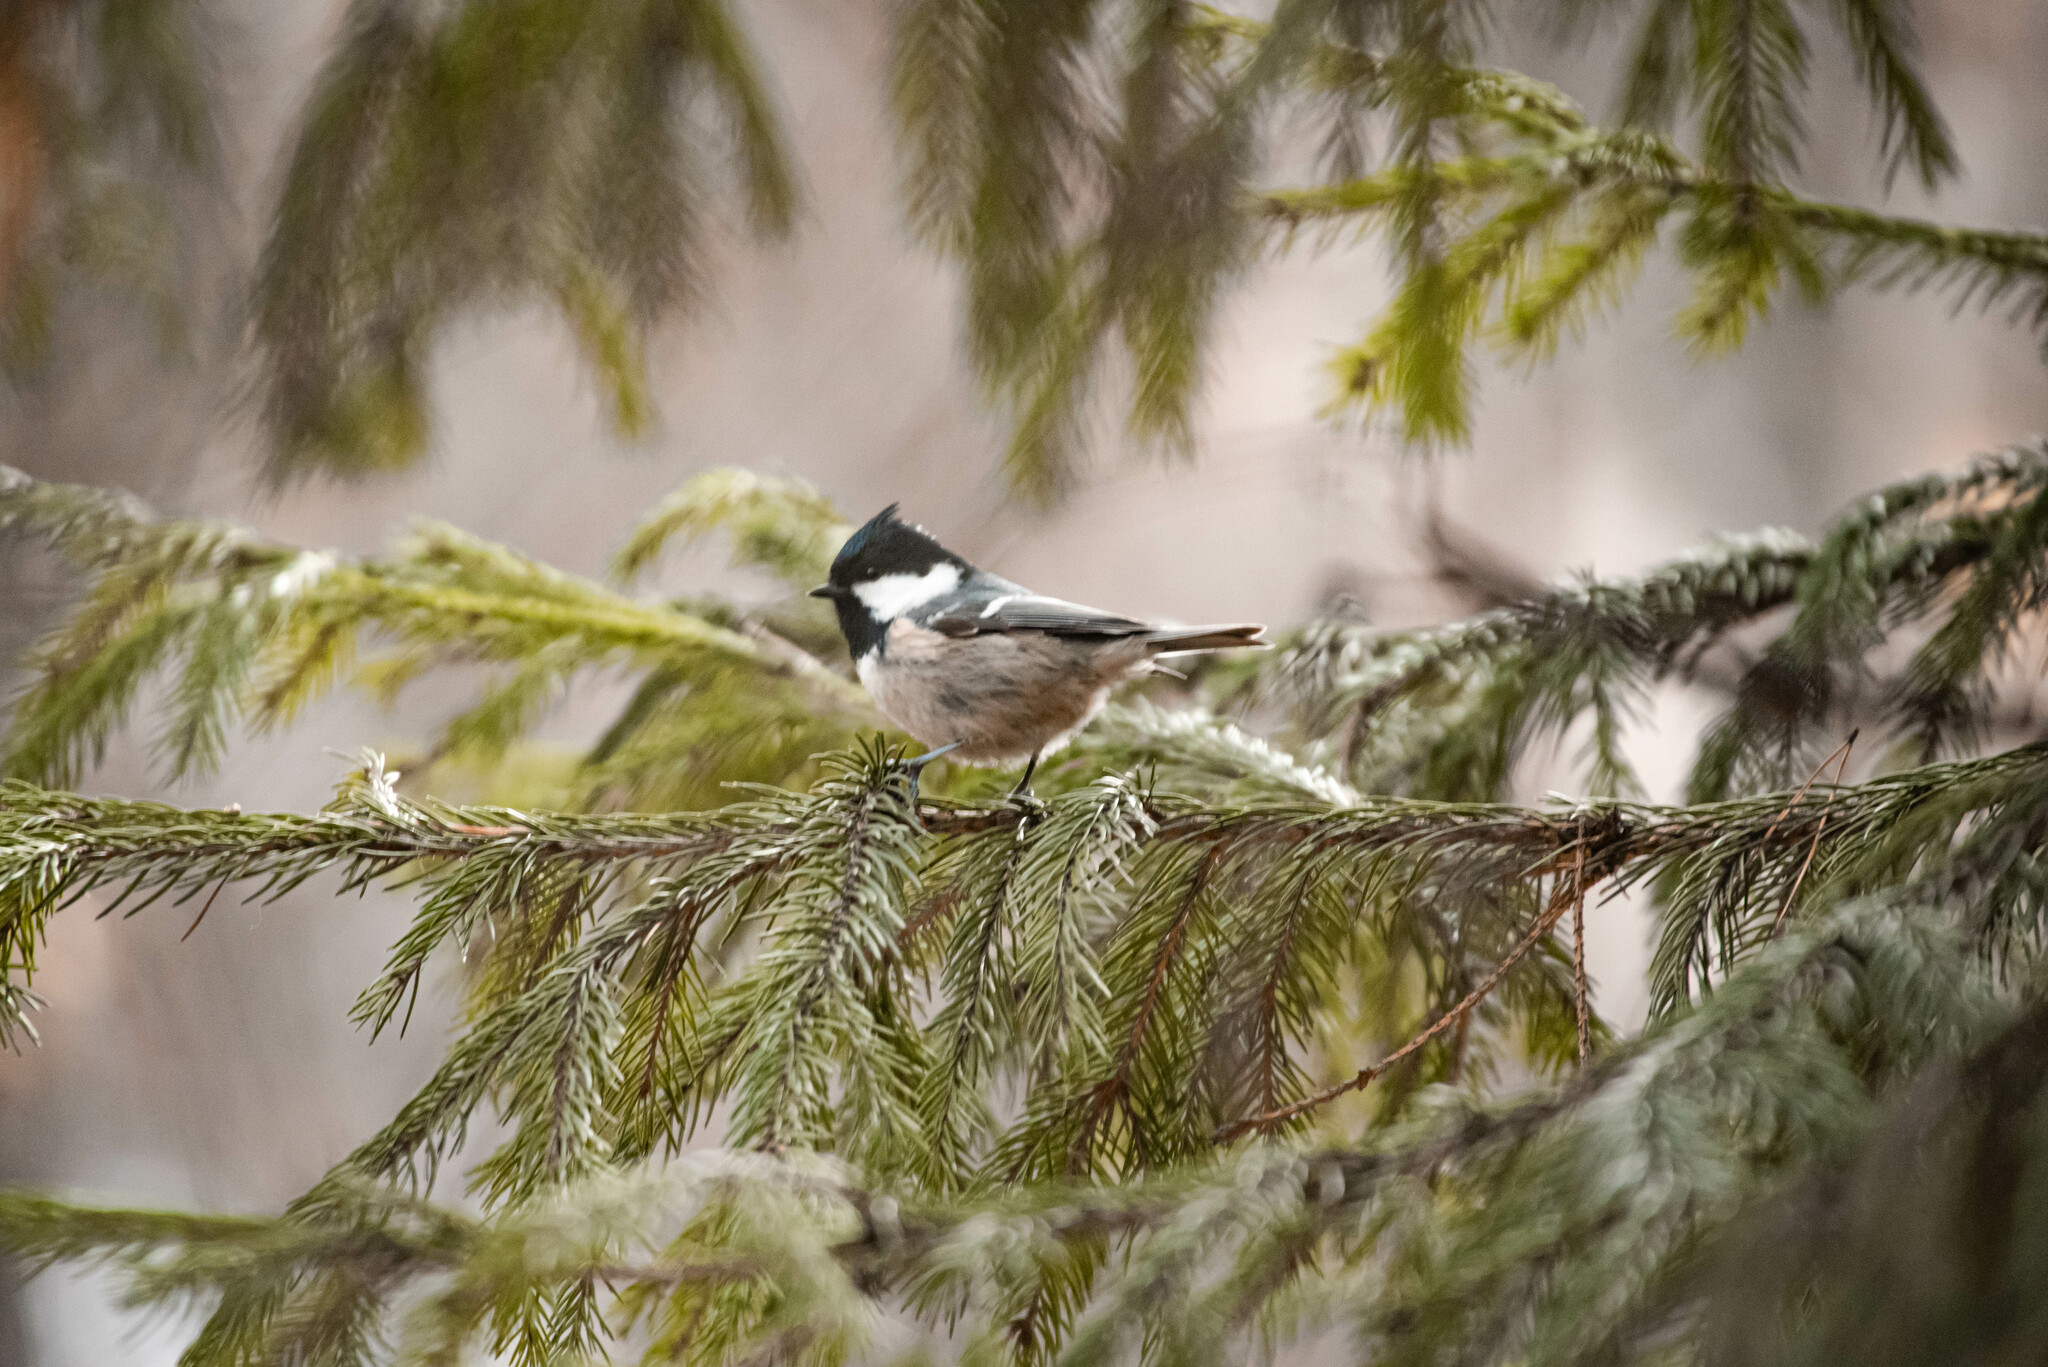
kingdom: Animalia
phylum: Chordata
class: Aves
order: Passeriformes
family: Paridae
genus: Periparus
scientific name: Periparus ater
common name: Coal tit
